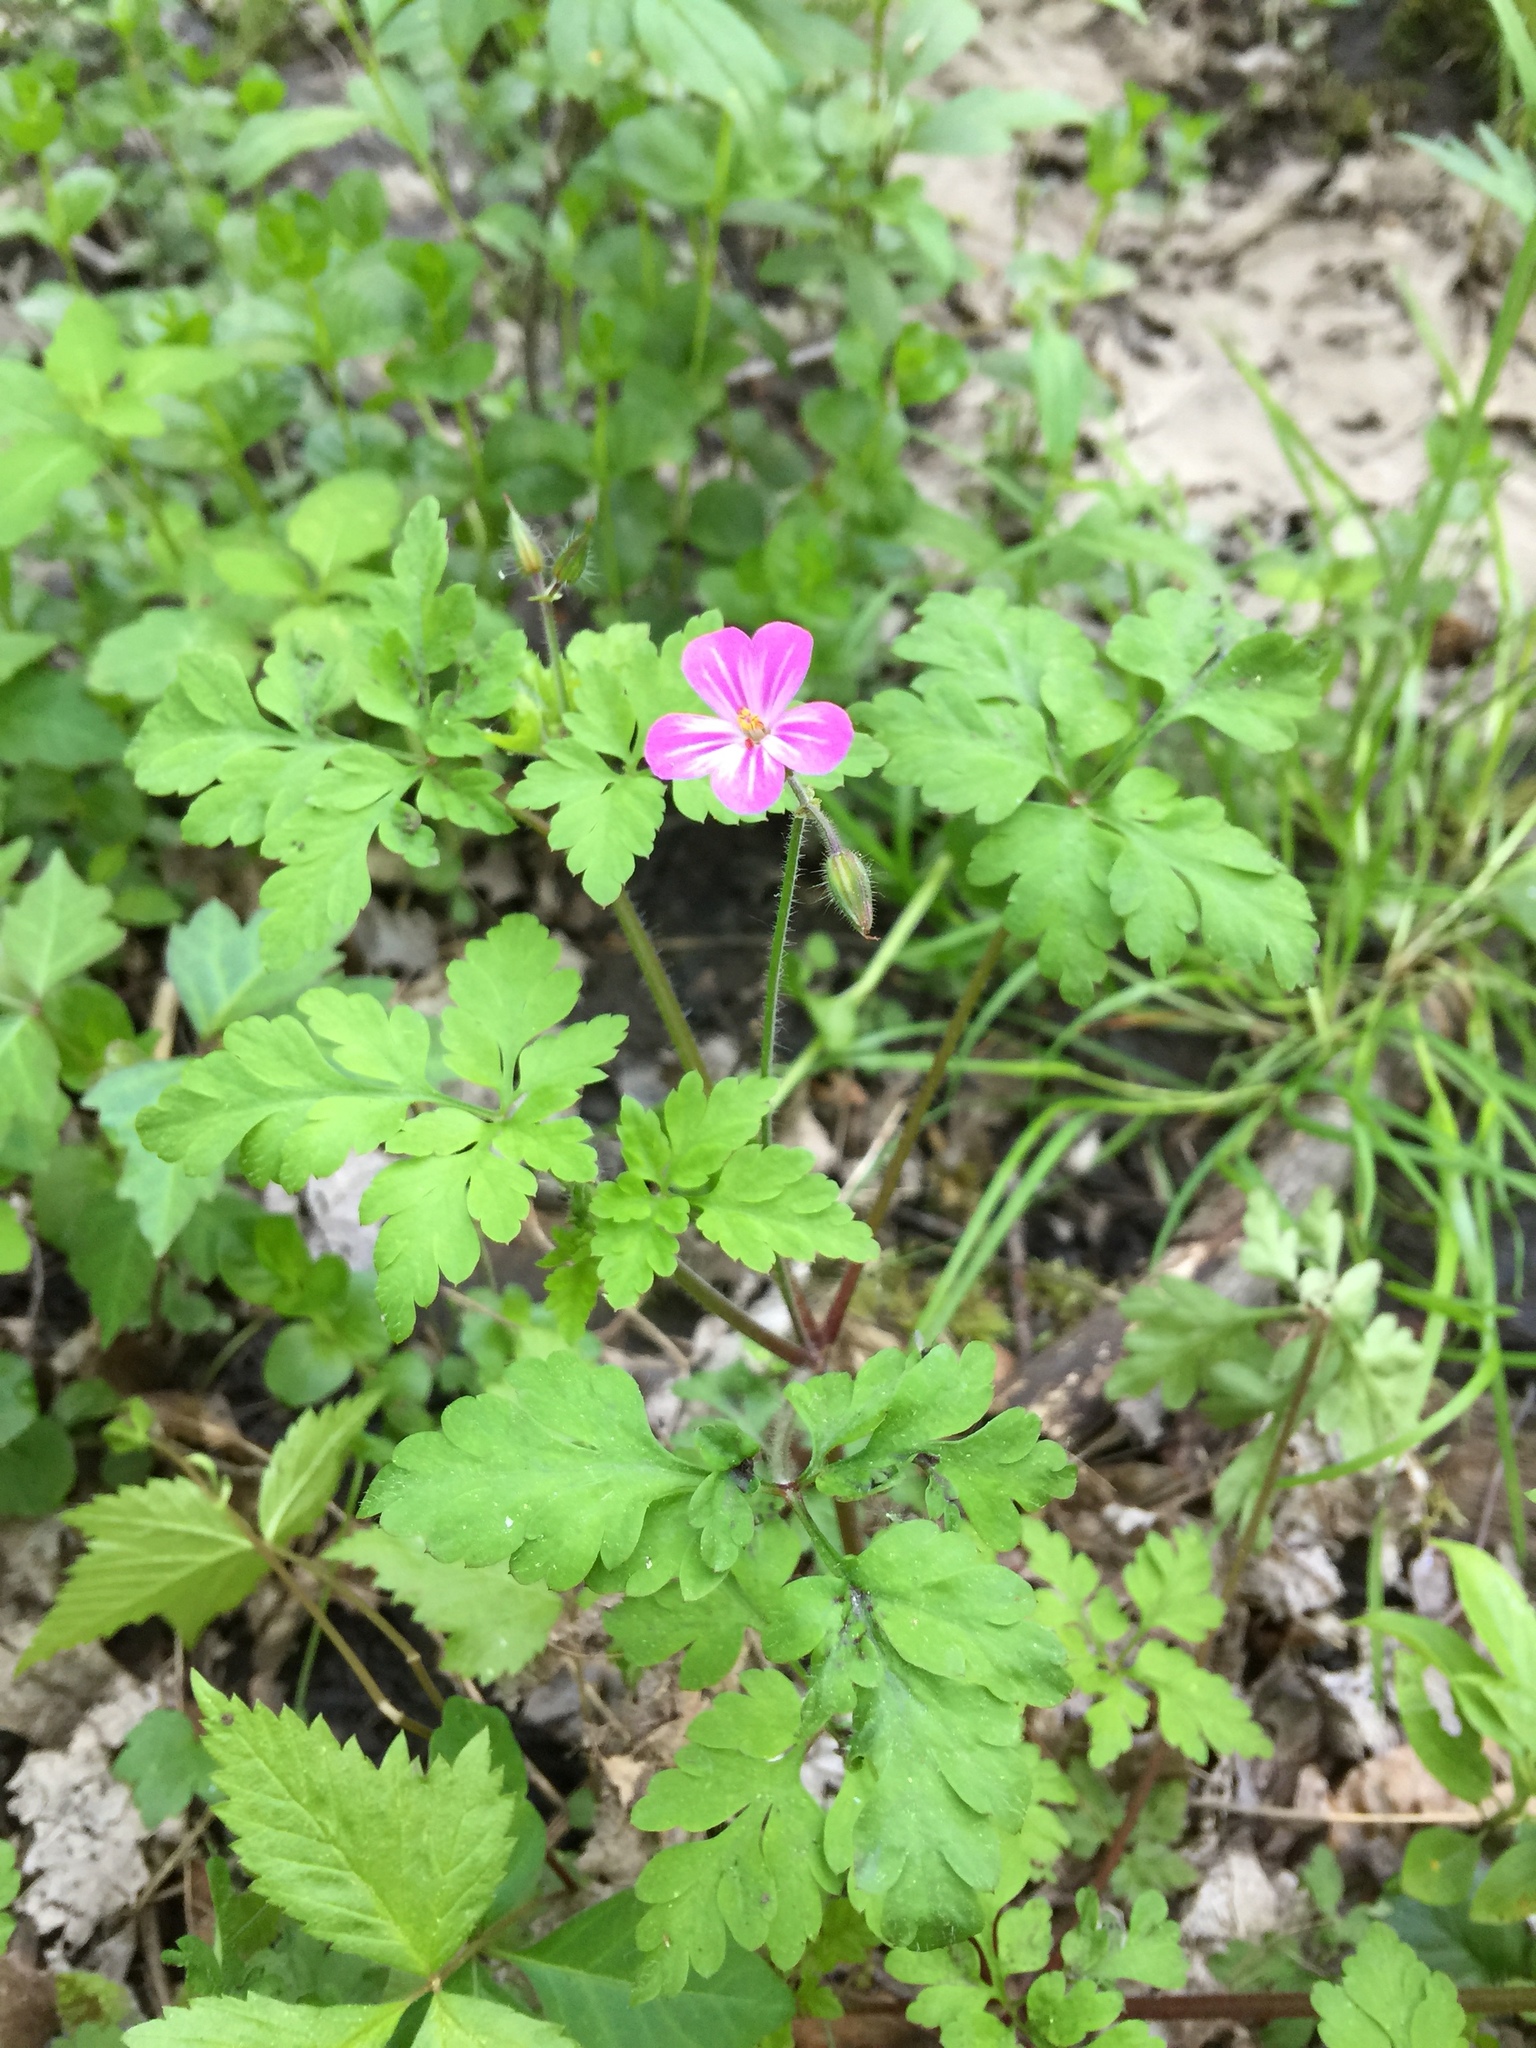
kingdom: Plantae
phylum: Tracheophyta
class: Magnoliopsida
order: Geraniales
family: Geraniaceae
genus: Geranium
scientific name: Geranium robertianum
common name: Herb-robert
